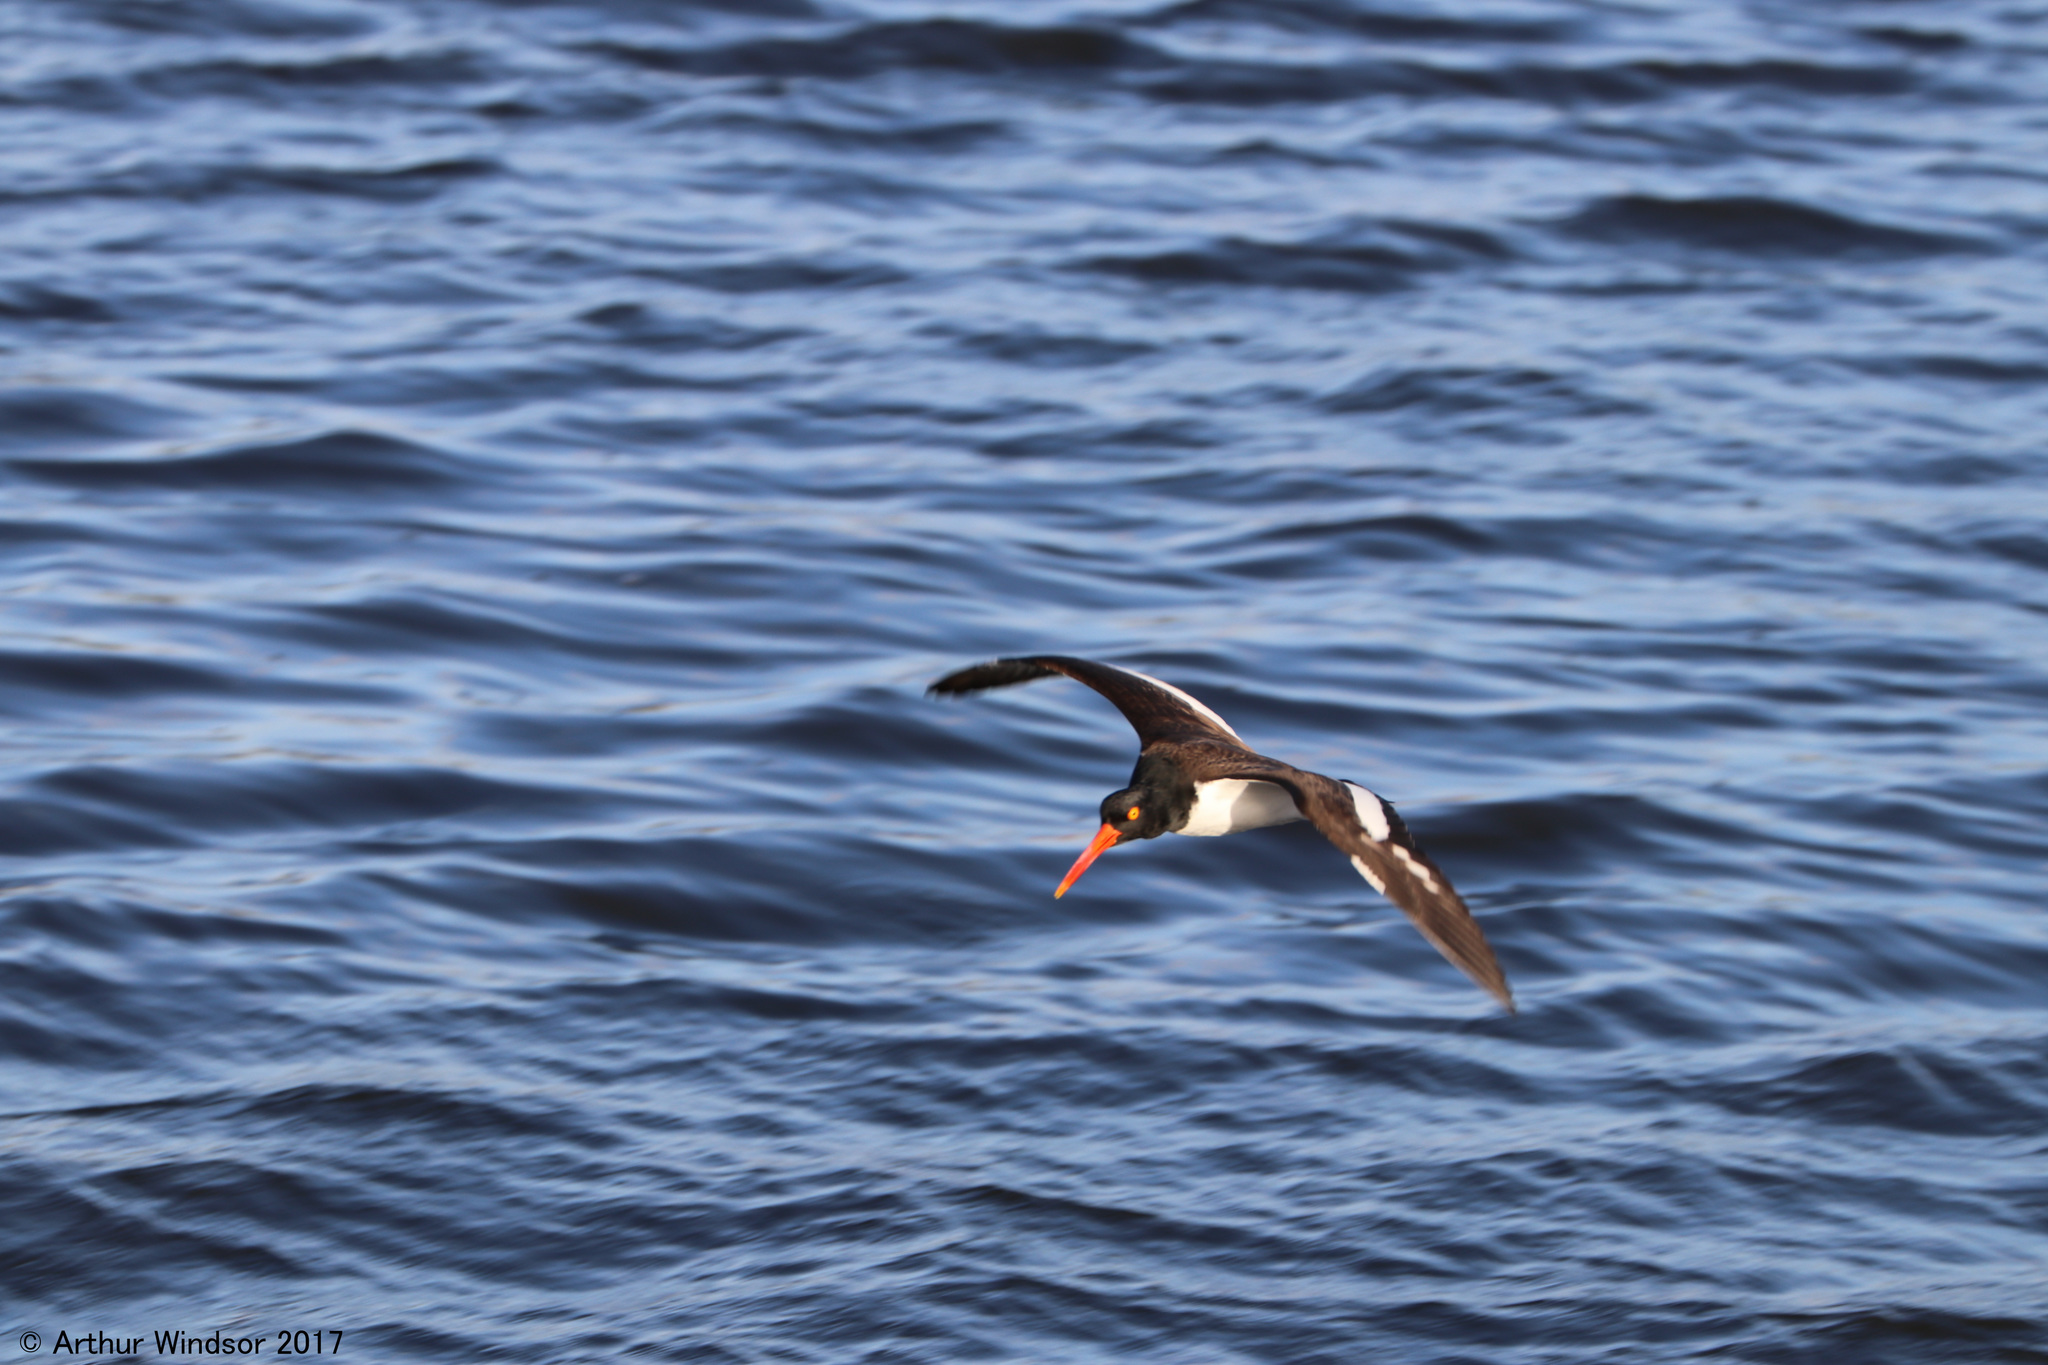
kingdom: Animalia
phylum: Chordata
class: Aves
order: Charadriiformes
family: Haematopodidae
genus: Haematopus
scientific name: Haematopus palliatus
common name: American oystercatcher
